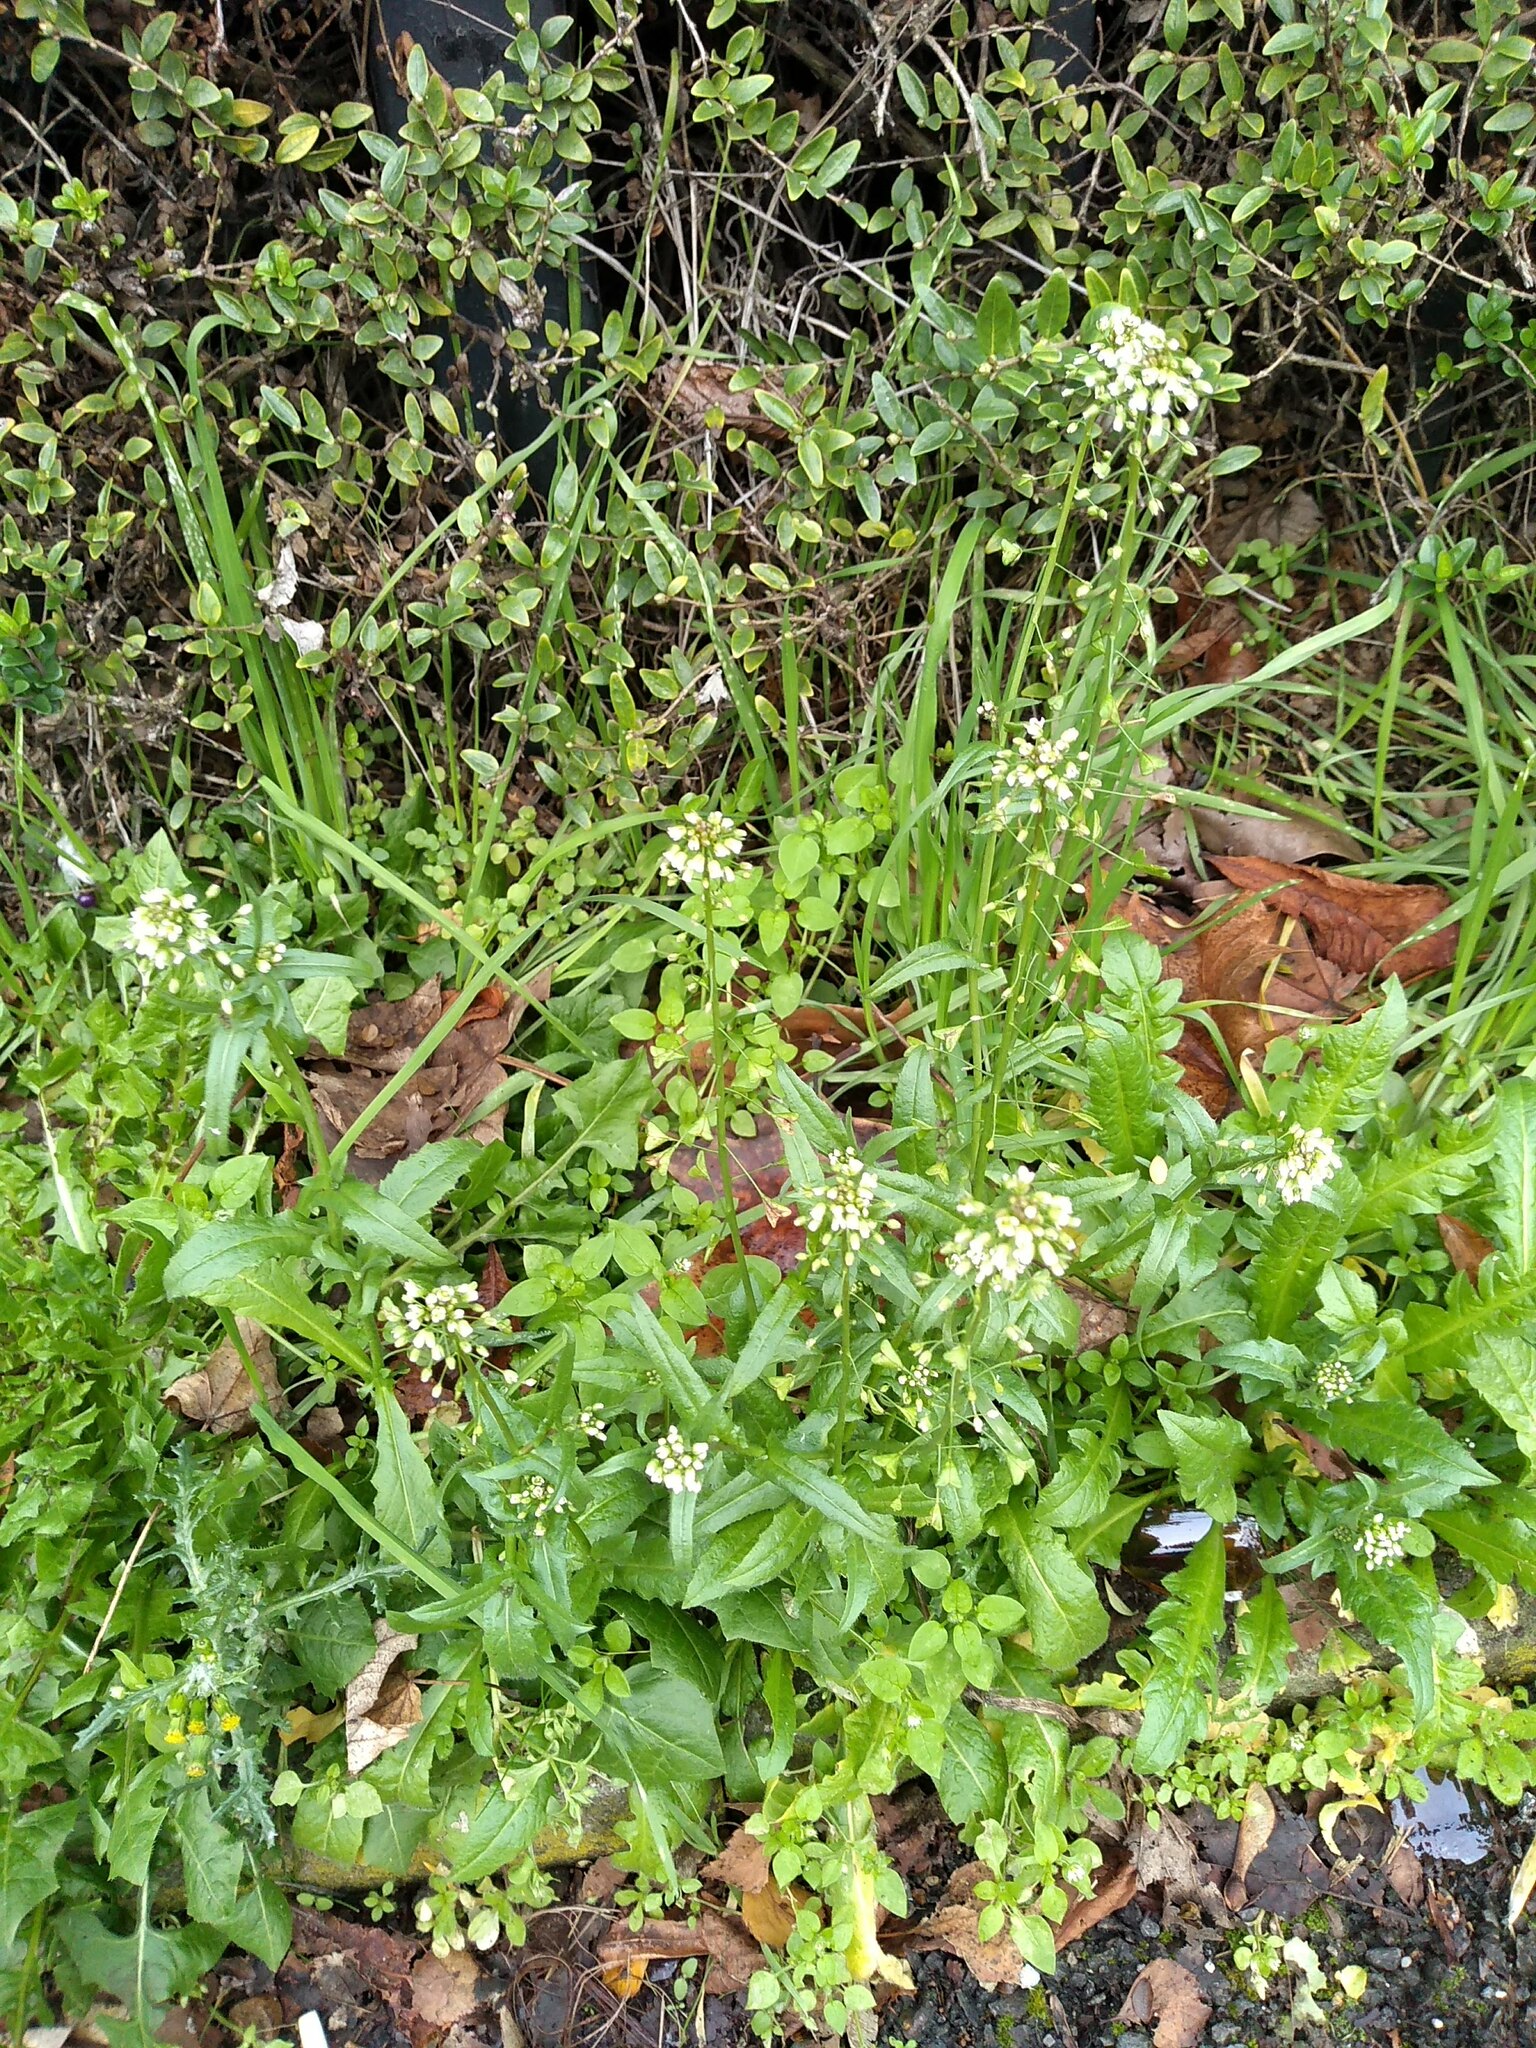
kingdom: Plantae
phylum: Tracheophyta
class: Magnoliopsida
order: Brassicales
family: Brassicaceae
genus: Capsella
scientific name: Capsella bursa-pastoris
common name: Shepherd's purse
